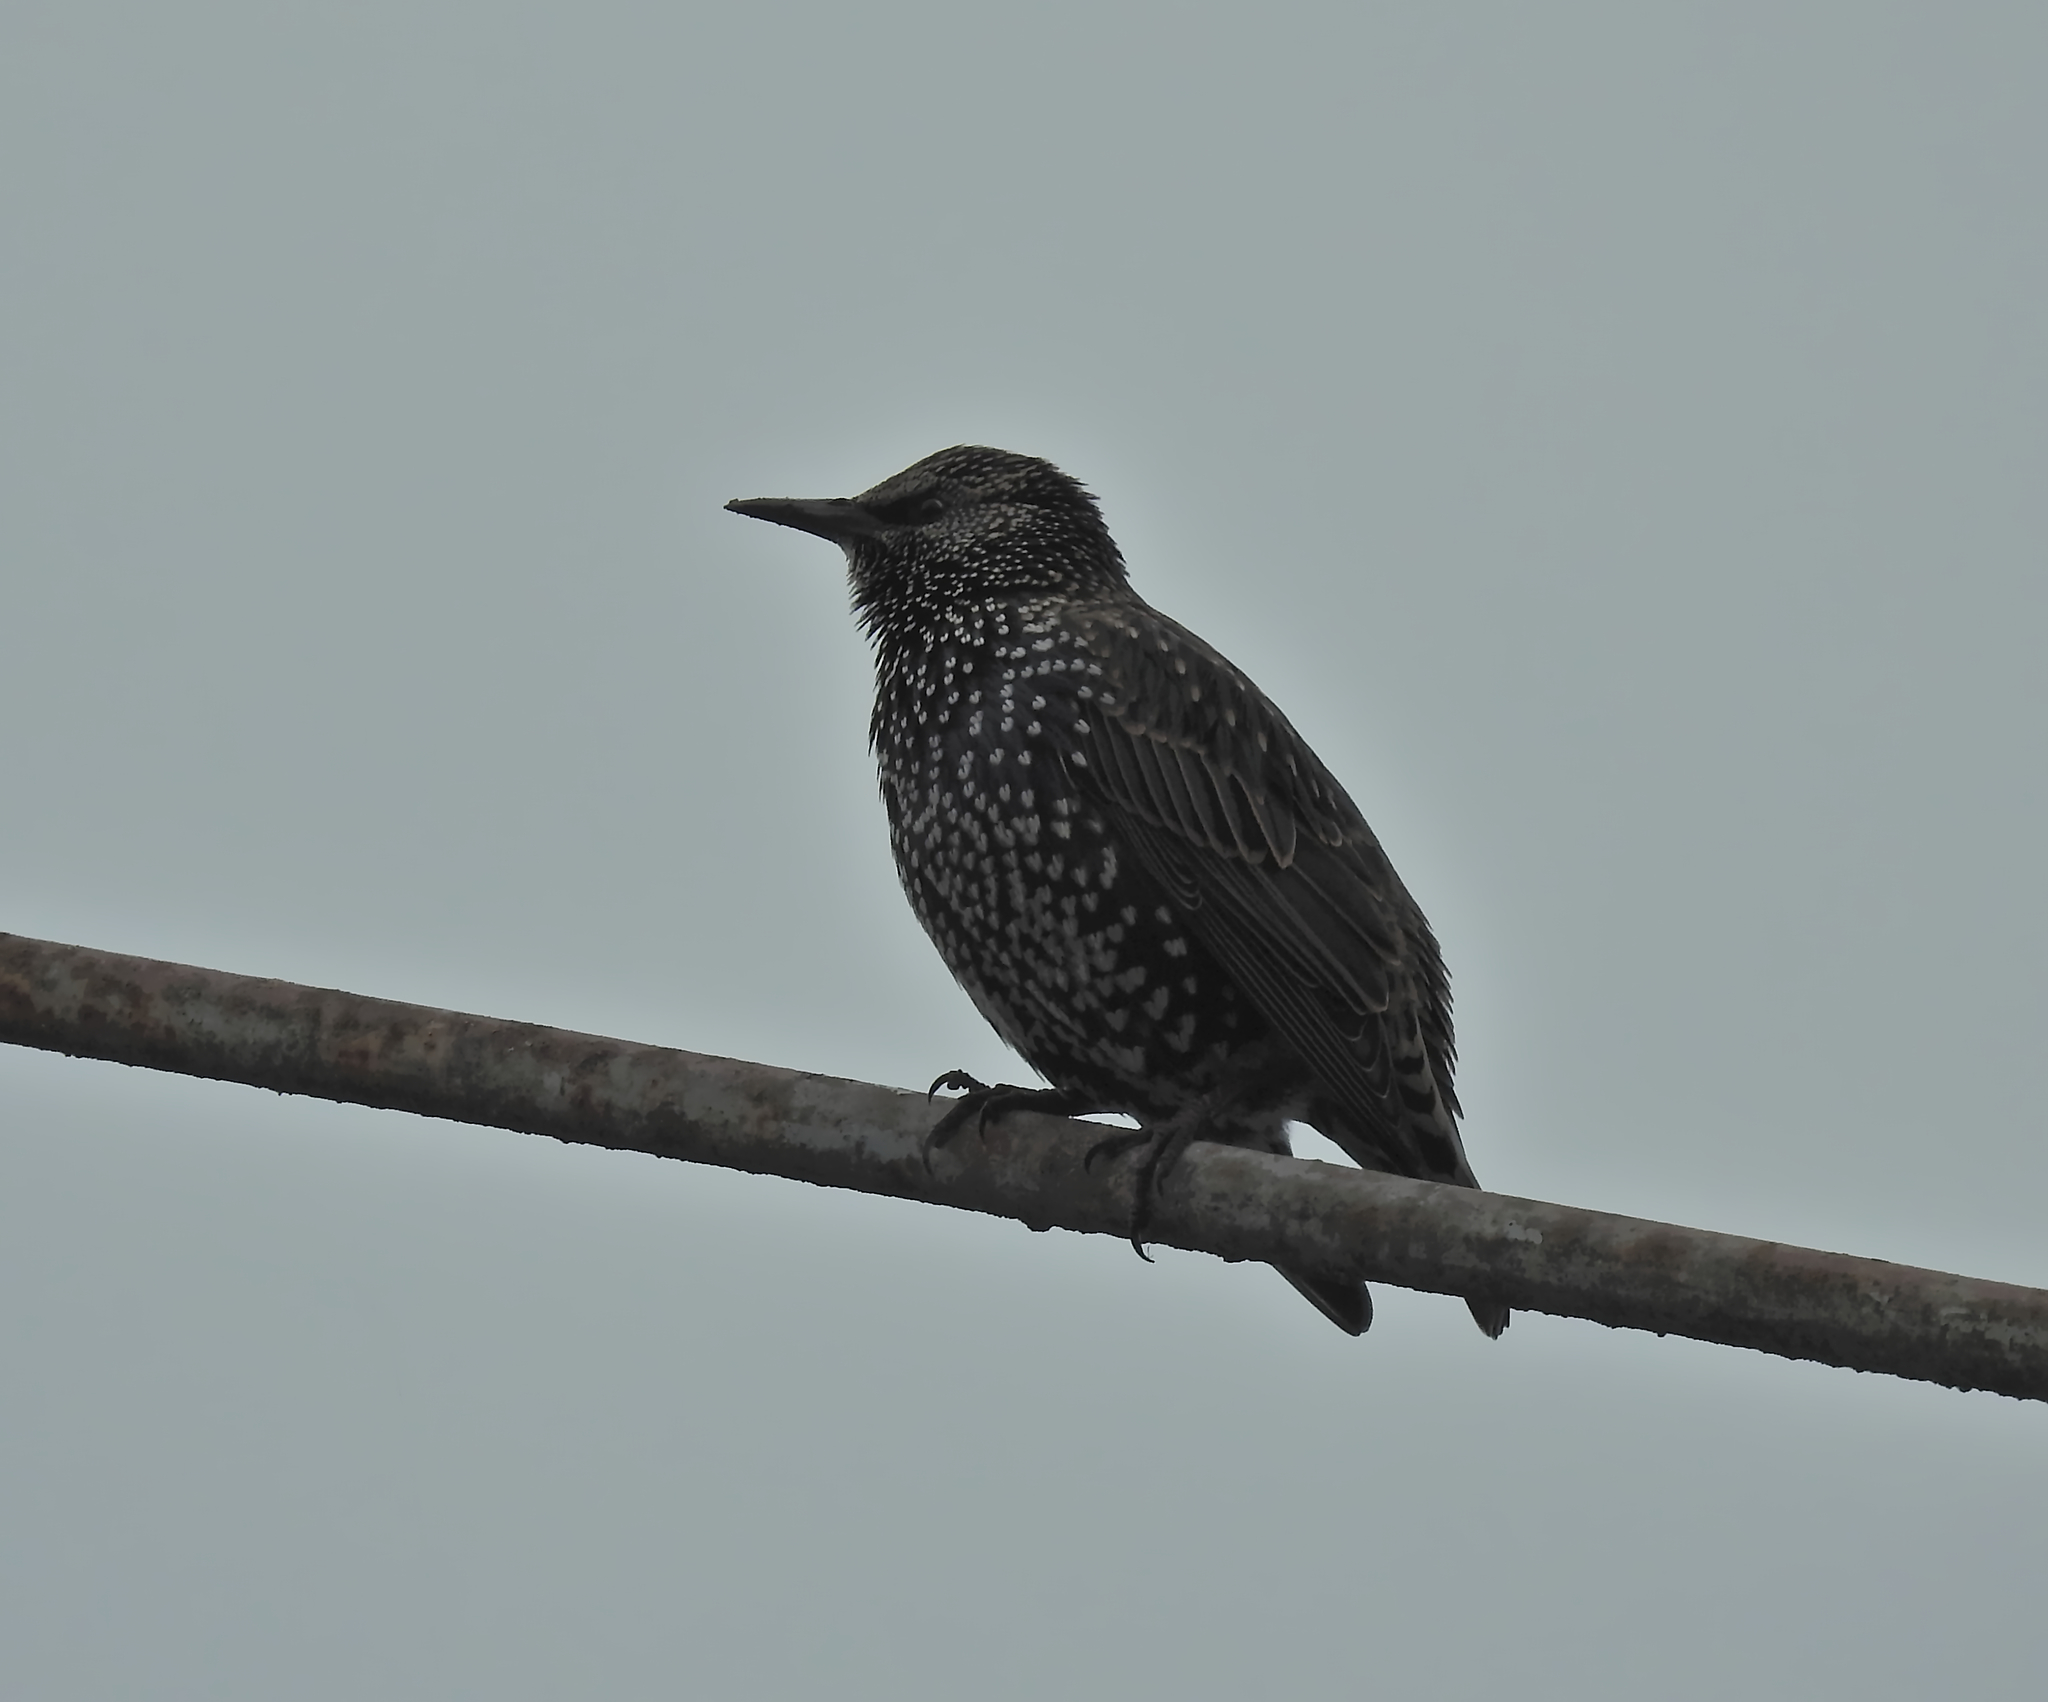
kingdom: Animalia
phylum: Chordata
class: Aves
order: Passeriformes
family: Sturnidae
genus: Sturnus
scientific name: Sturnus vulgaris
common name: Common starling
